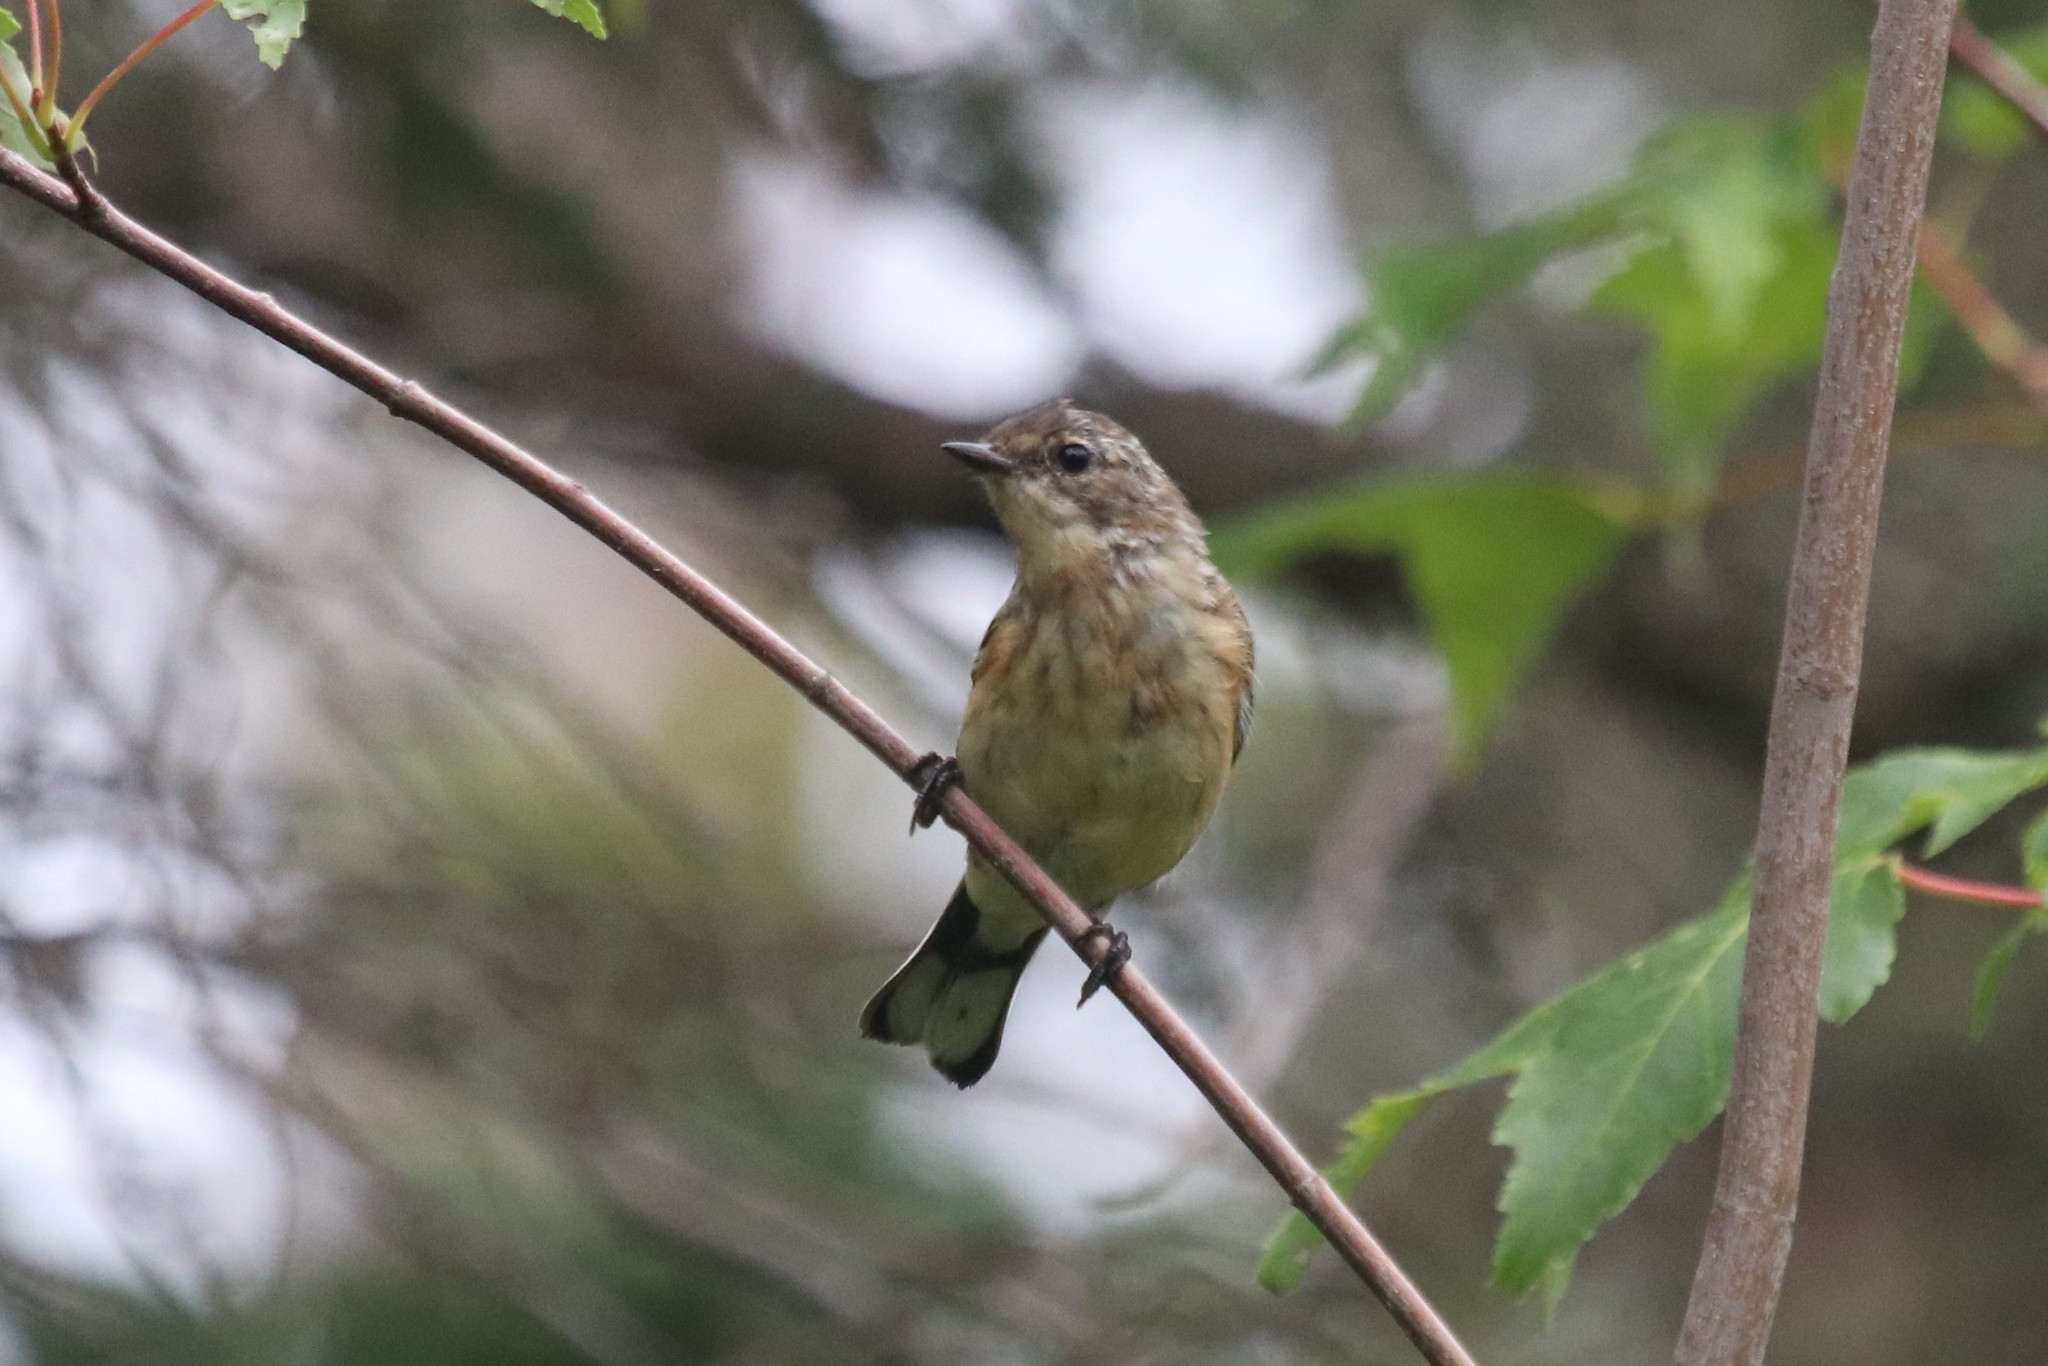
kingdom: Animalia
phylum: Chordata
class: Aves
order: Passeriformes
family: Parulidae
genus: Setophaga
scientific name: Setophaga coronata
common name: Myrtle warbler
